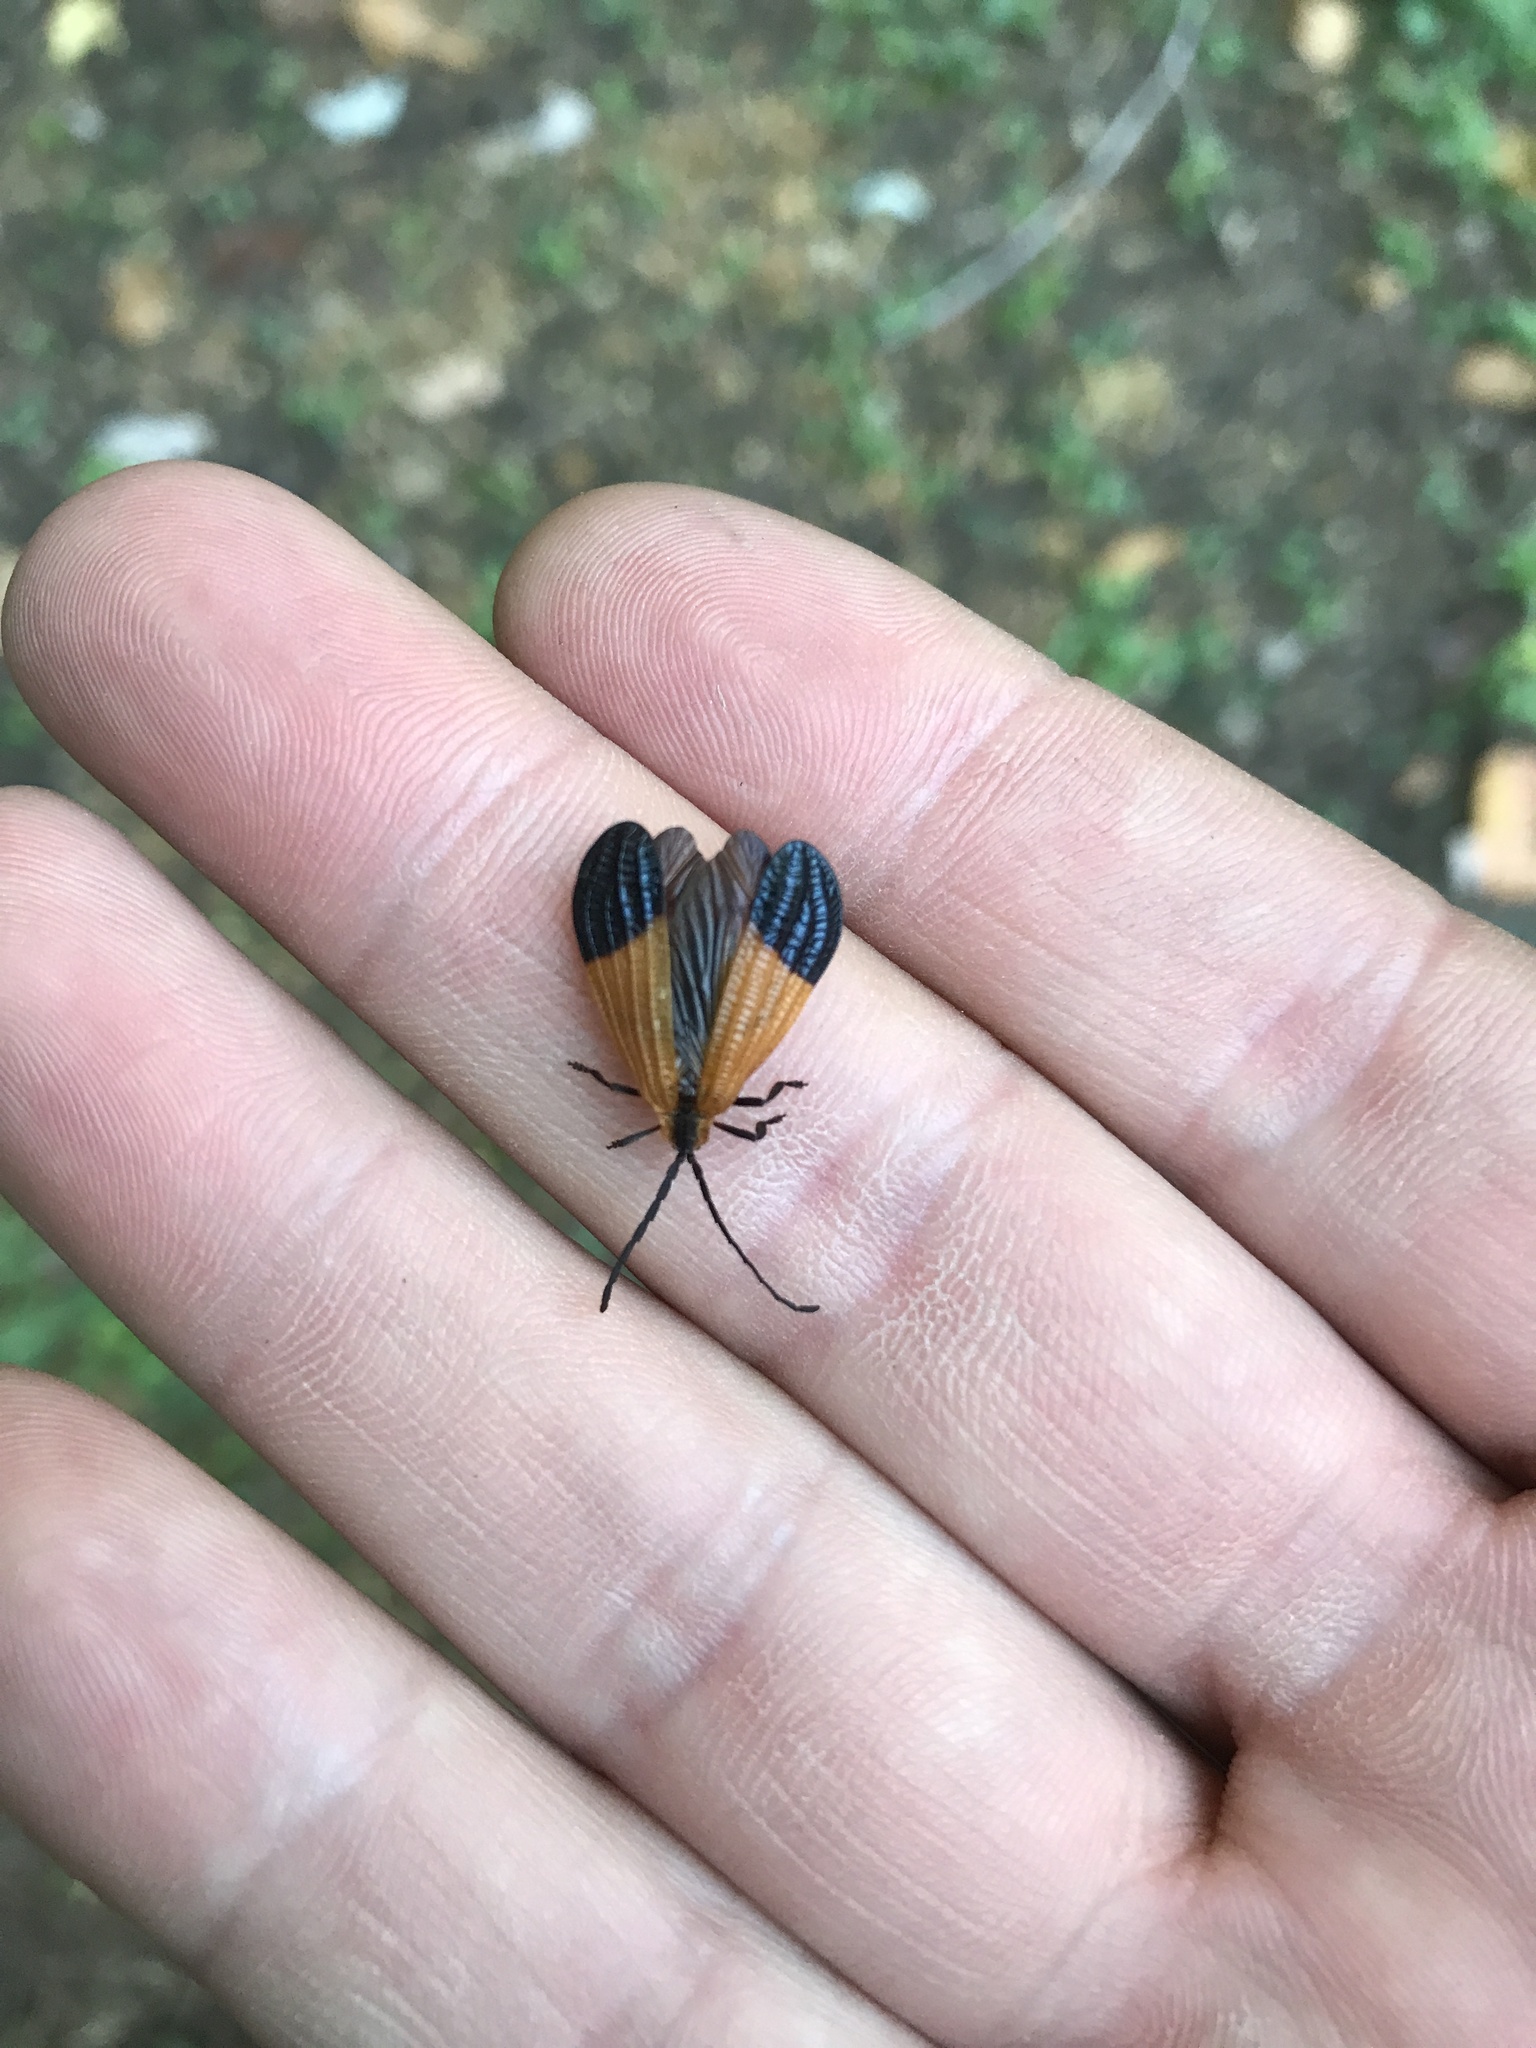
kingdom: Animalia
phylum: Arthropoda
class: Insecta
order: Coleoptera
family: Lycidae
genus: Calopteron
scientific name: Calopteron terminale
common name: End band net-winged beetle
